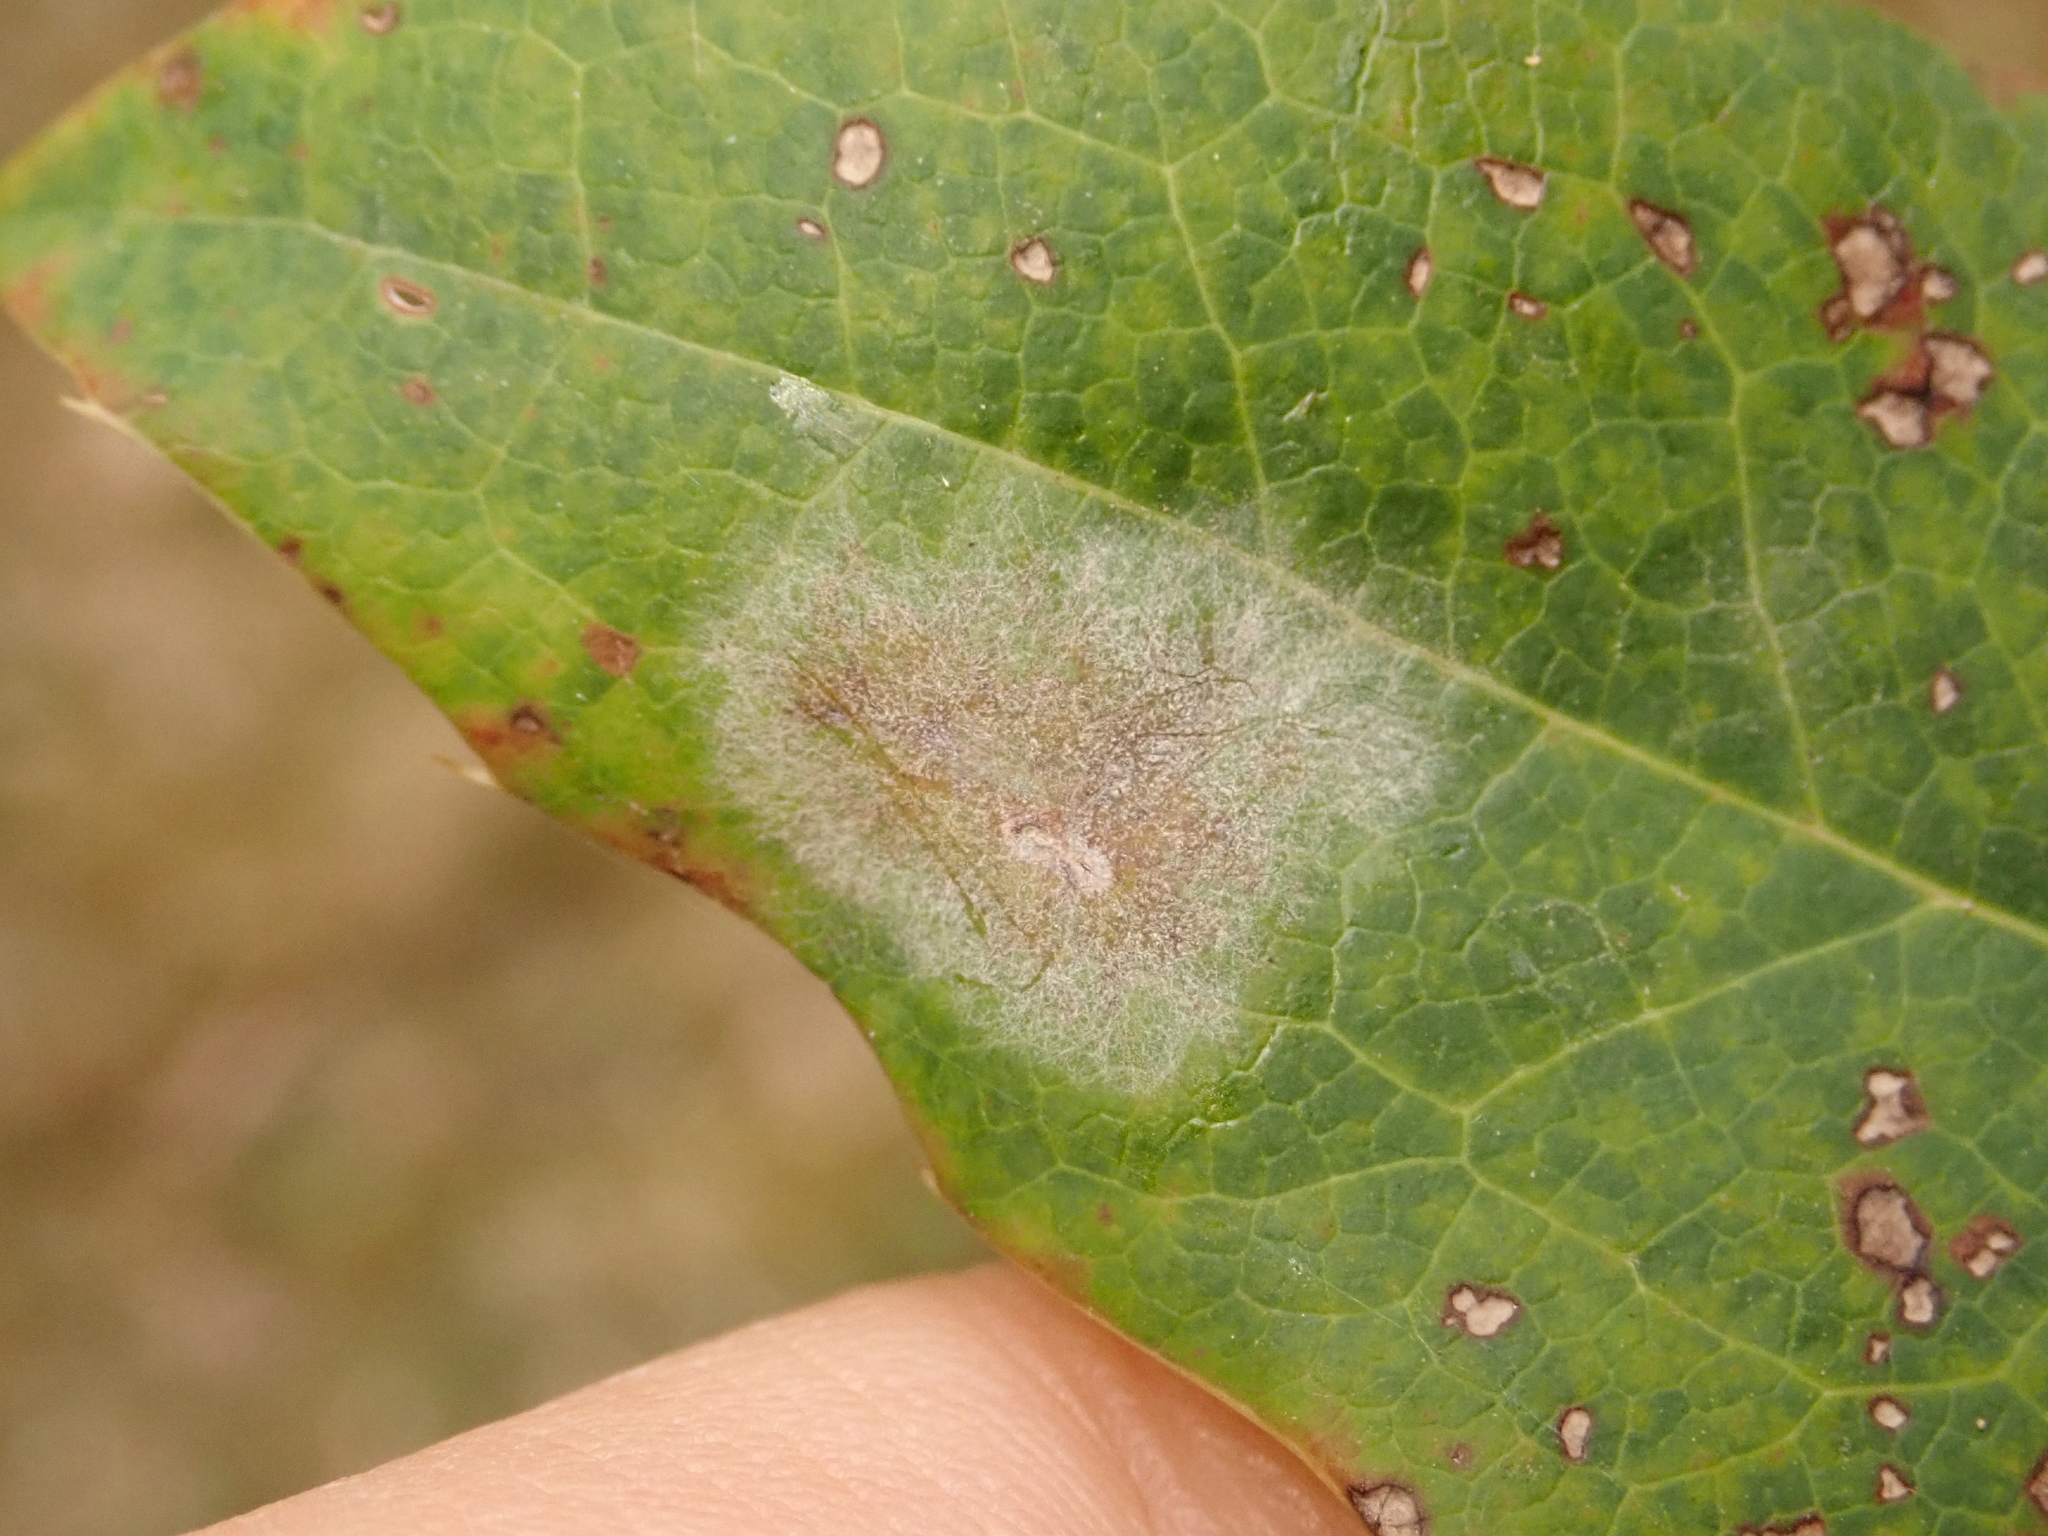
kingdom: Fungi
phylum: Ascomycota
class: Leotiomycetes
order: Helotiales
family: Erysiphaceae
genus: Erysiphe
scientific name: Erysiphe berberidis
